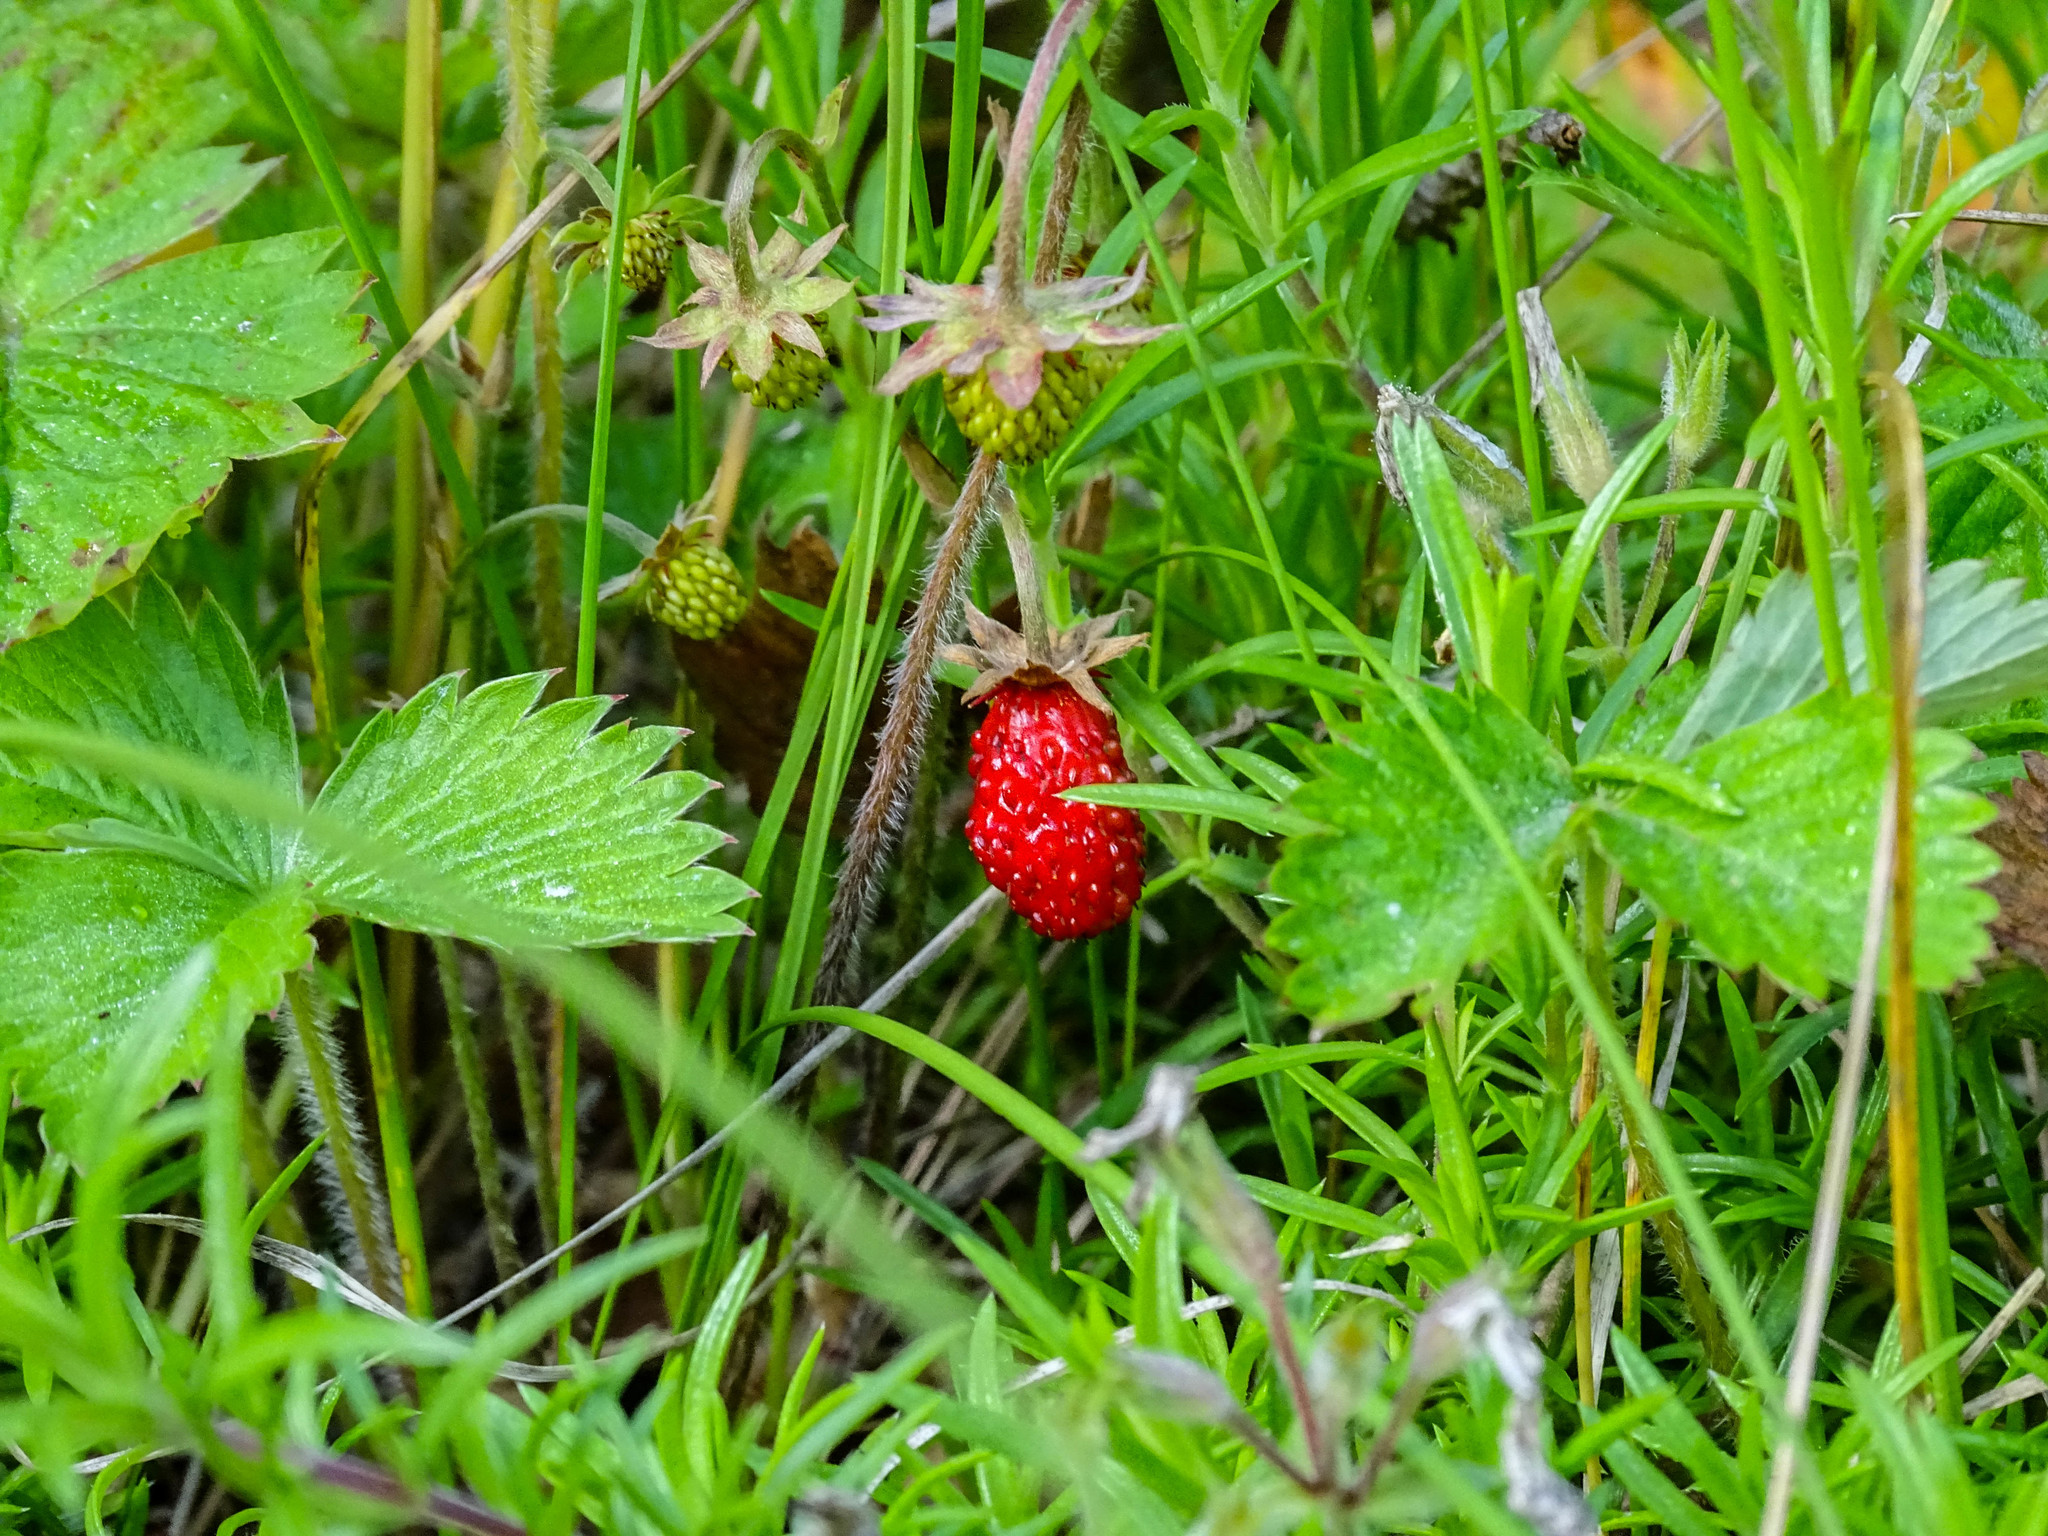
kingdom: Plantae
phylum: Tracheophyta
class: Magnoliopsida
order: Rosales
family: Rosaceae
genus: Fragaria
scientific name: Fragaria vesca
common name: Wild strawberry
